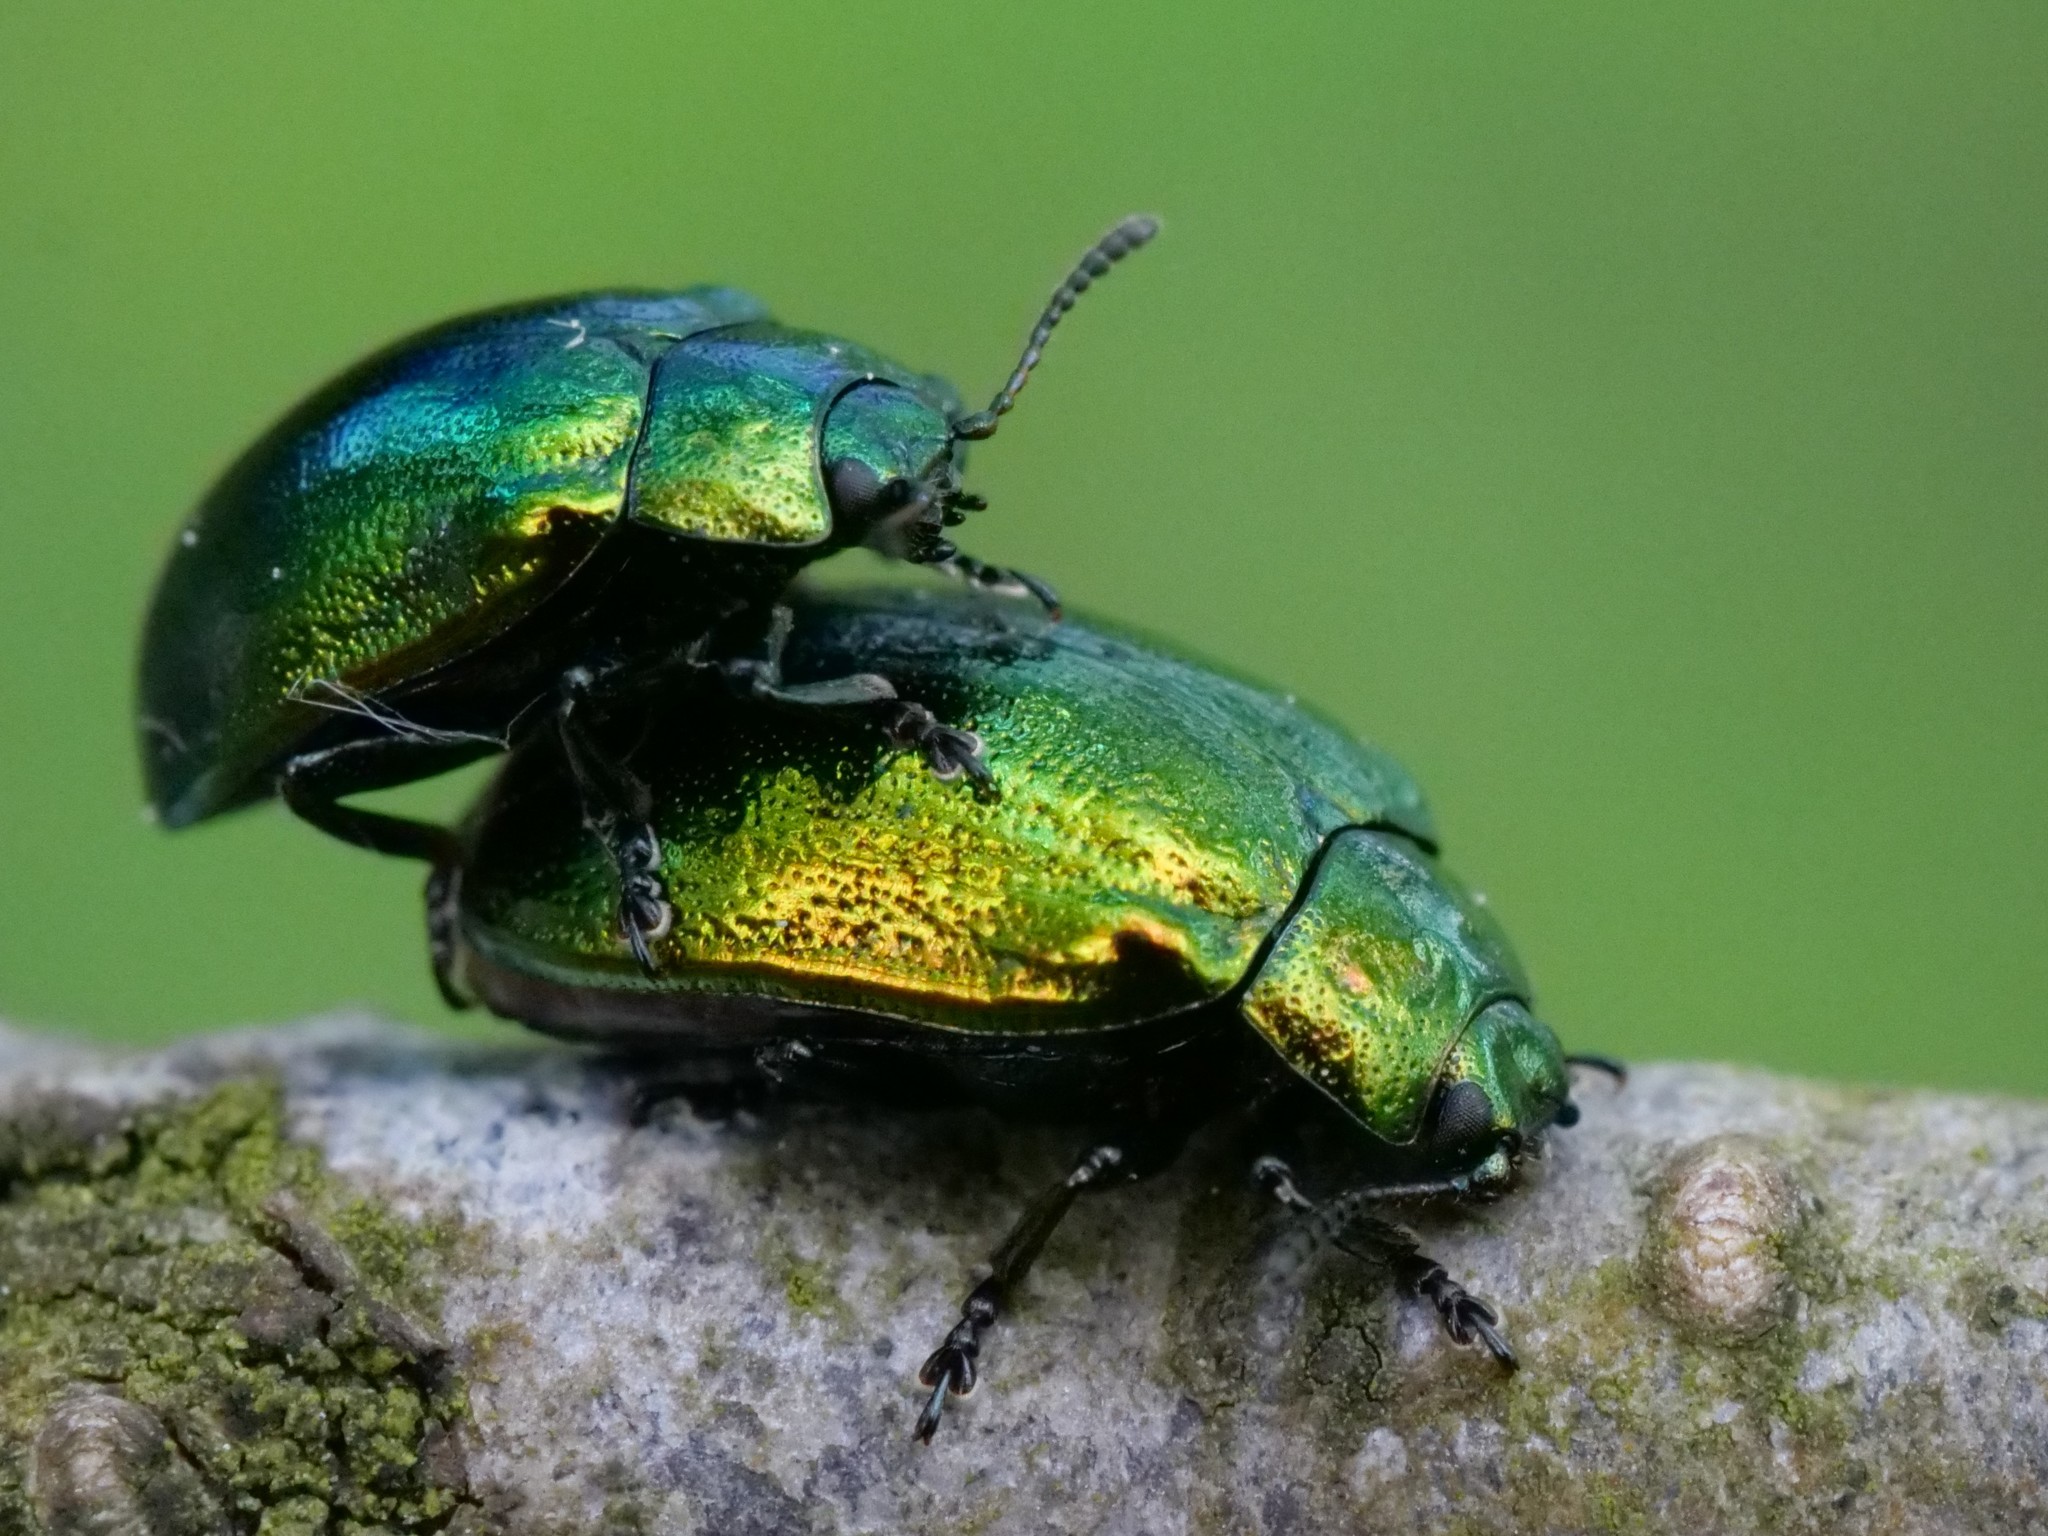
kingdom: Animalia
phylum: Arthropoda
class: Insecta
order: Coleoptera
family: Chrysomelidae
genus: Plagiosterna
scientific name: Plagiosterna aenea
